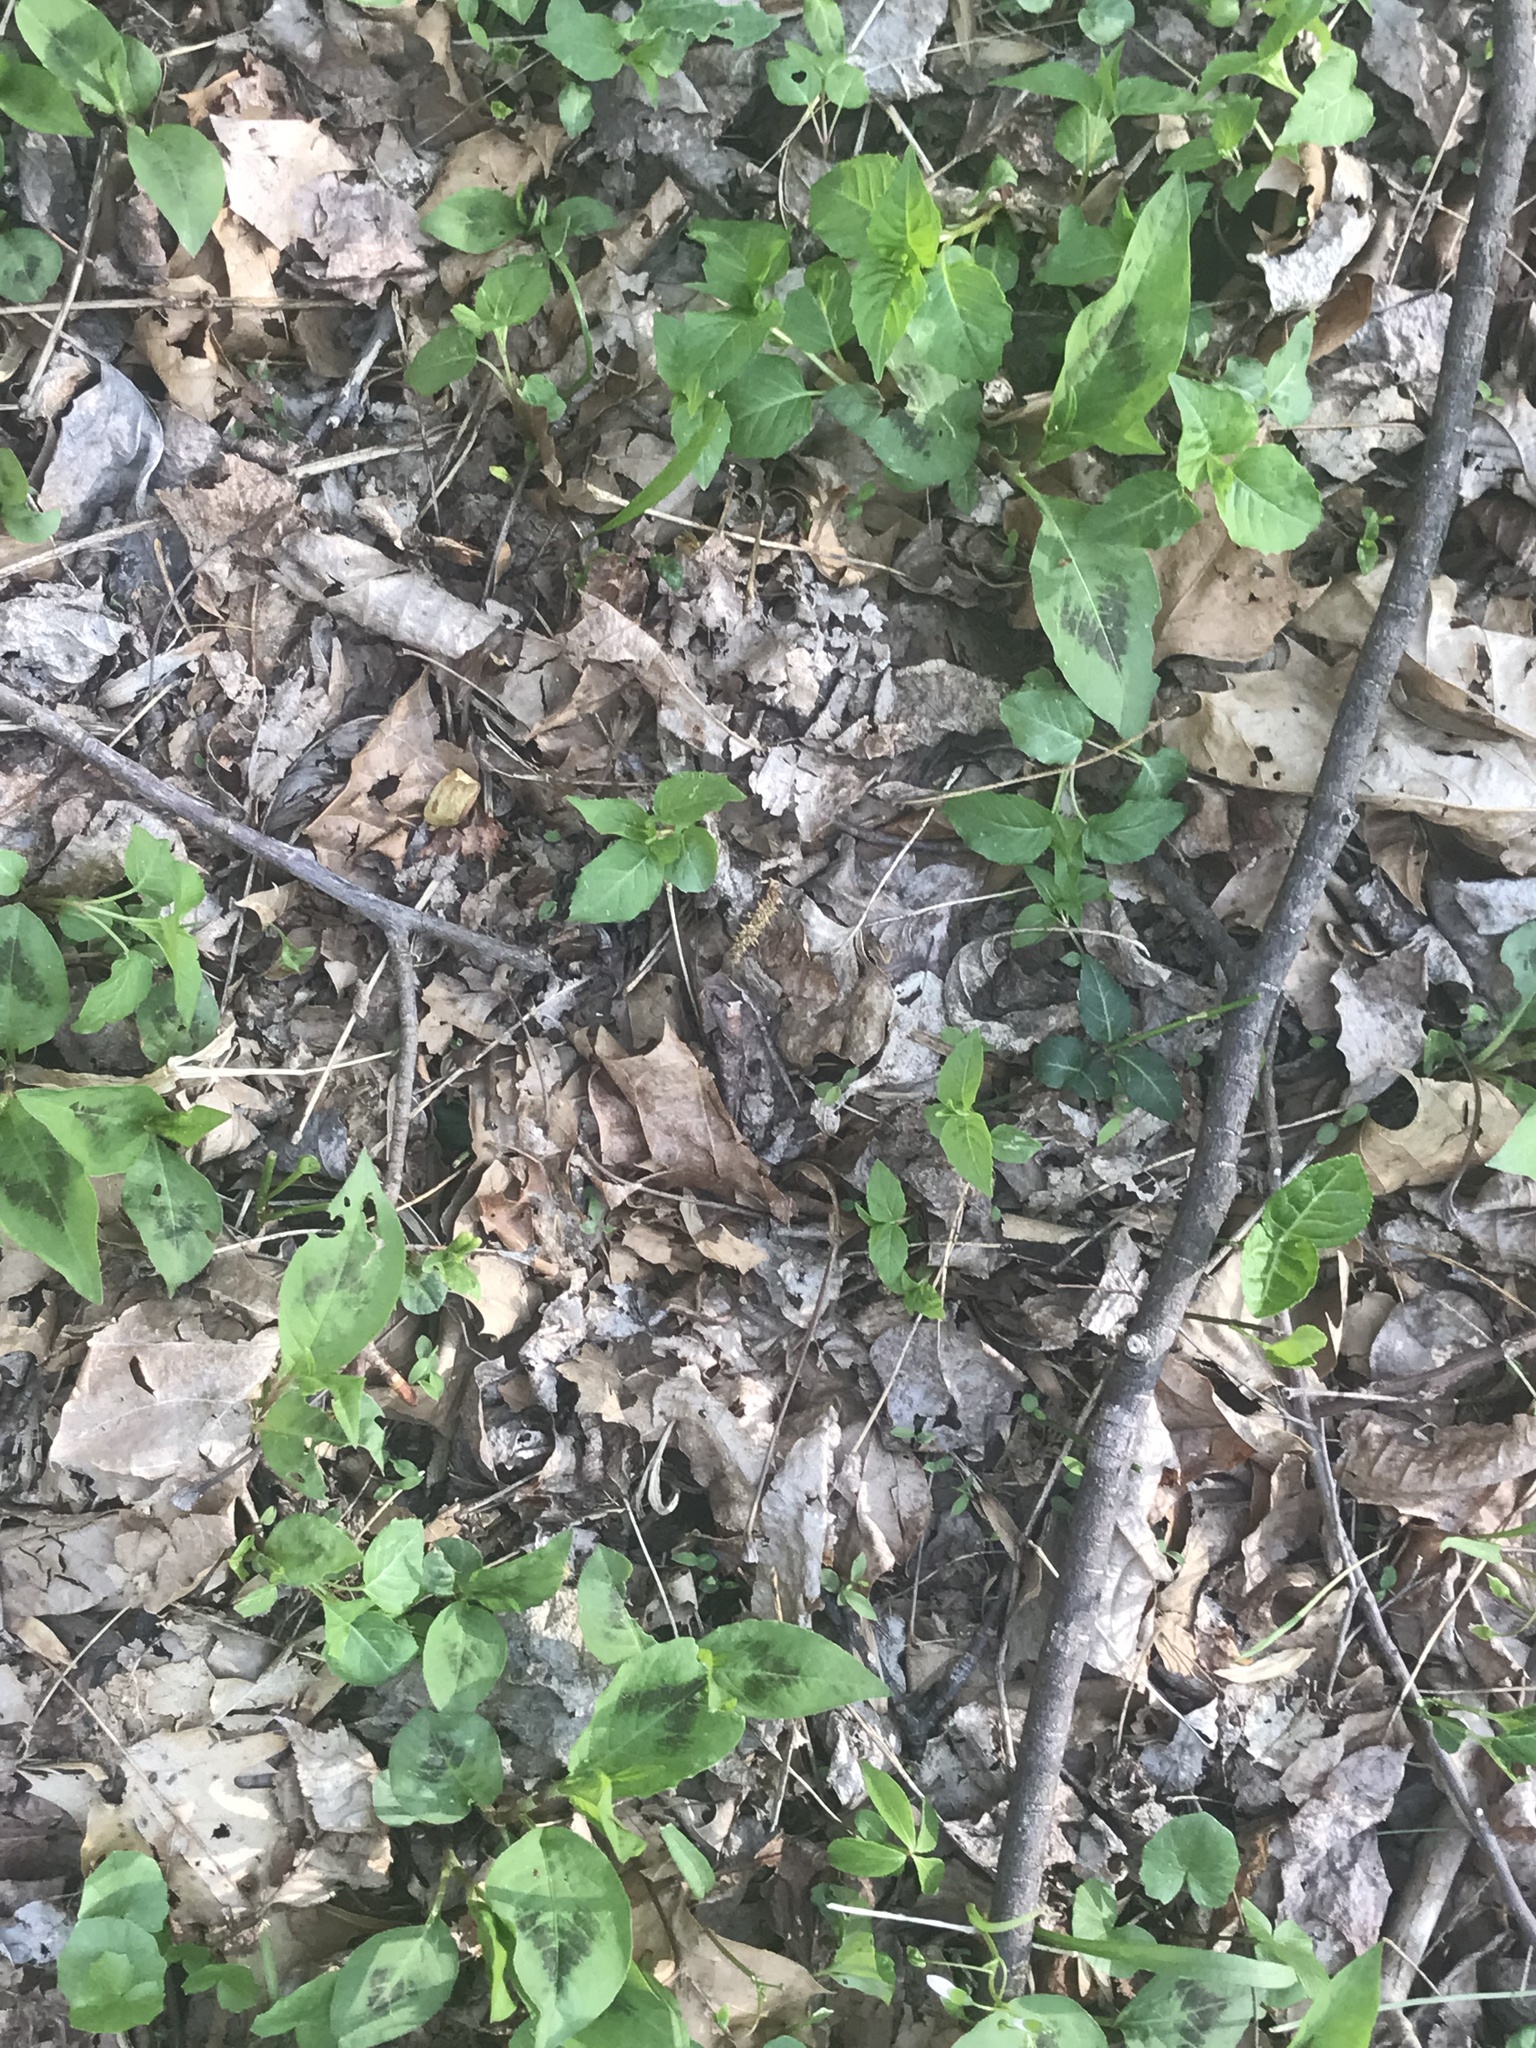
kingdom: Plantae
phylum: Tracheophyta
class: Magnoliopsida
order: Caryophyllales
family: Polygonaceae
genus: Persicaria
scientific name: Persicaria virginiana
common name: Jumpseed
